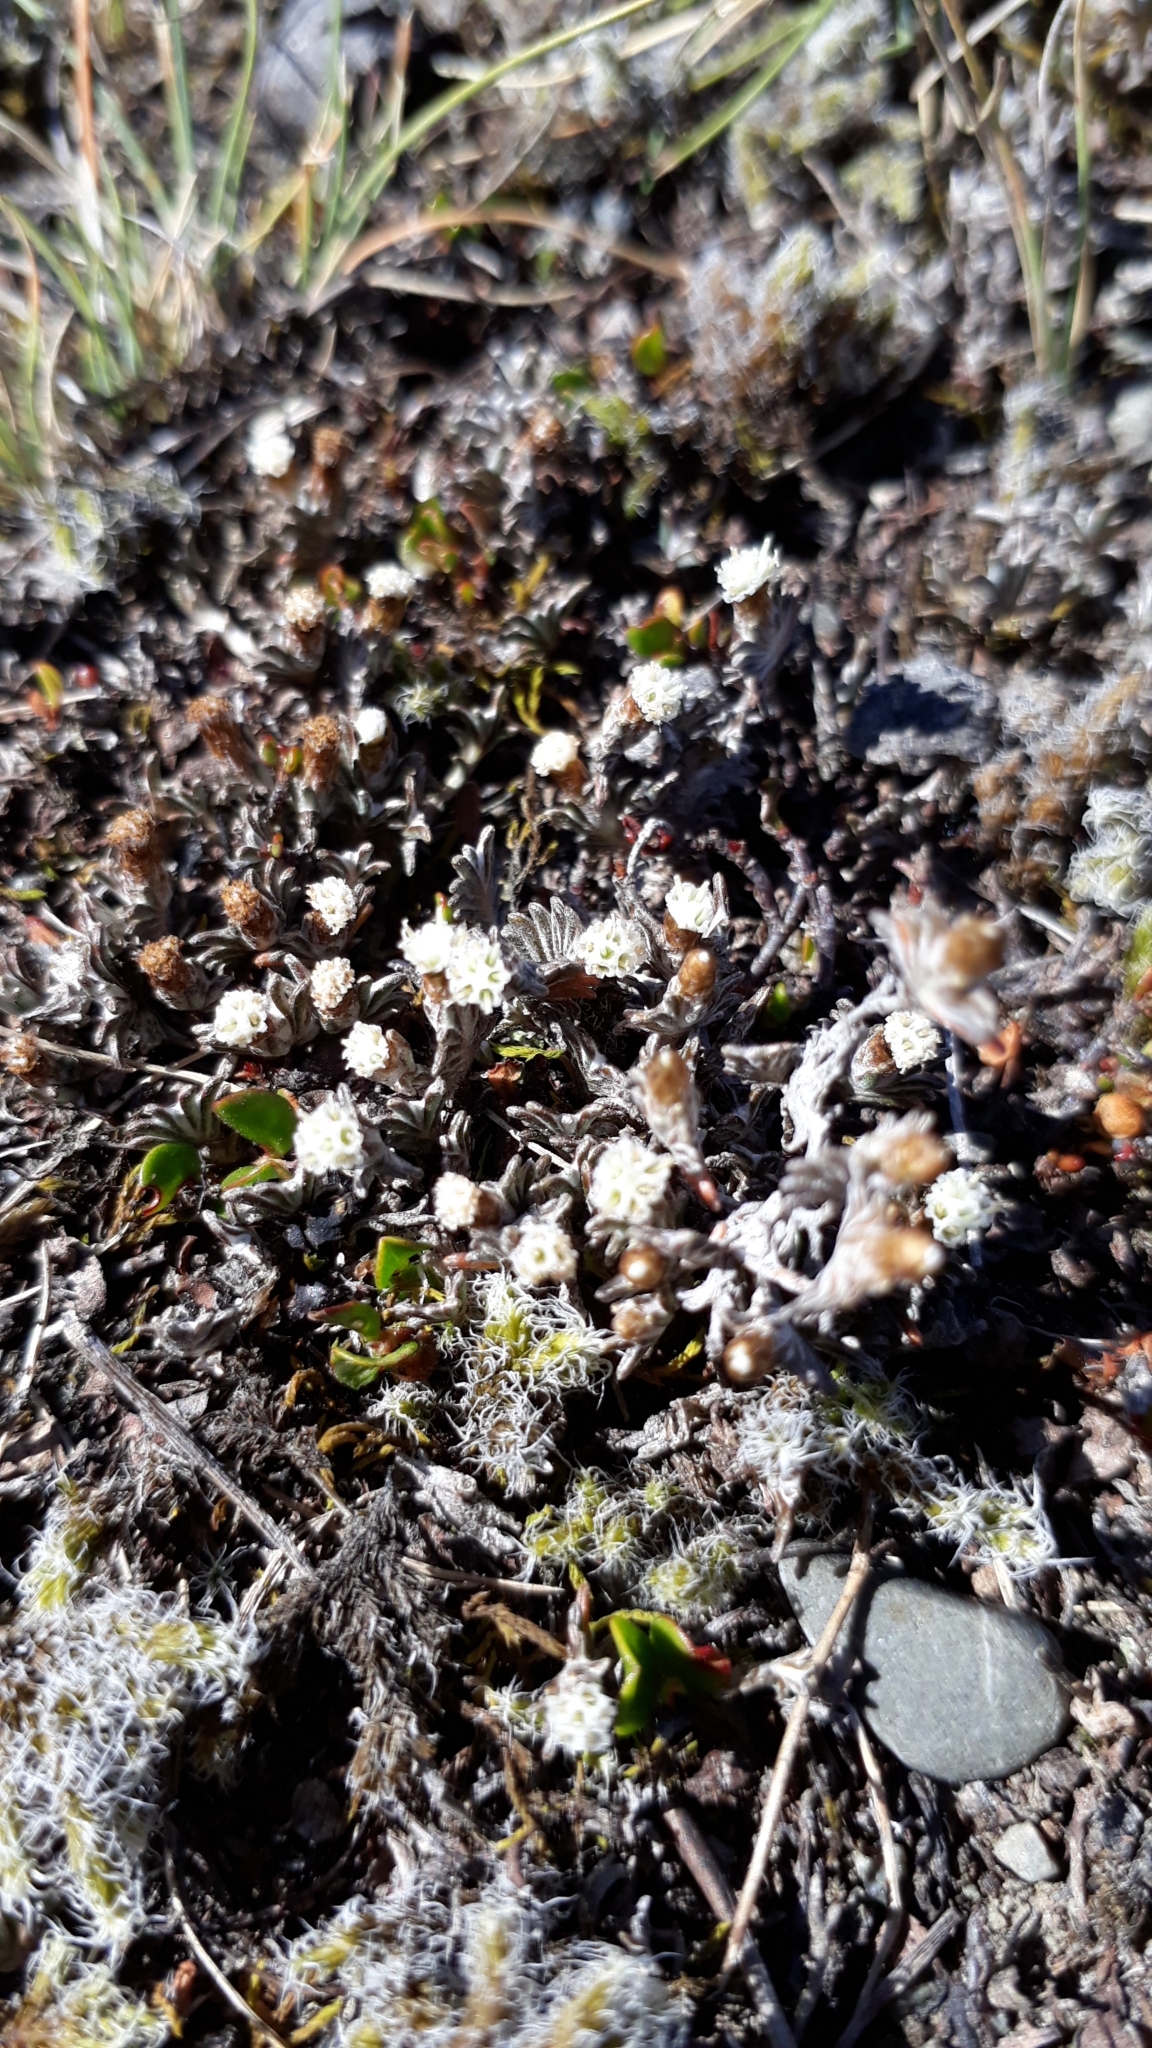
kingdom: Plantae
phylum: Tracheophyta
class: Magnoliopsida
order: Asterales
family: Asteraceae
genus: Raoulia
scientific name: Raoulia monroi
